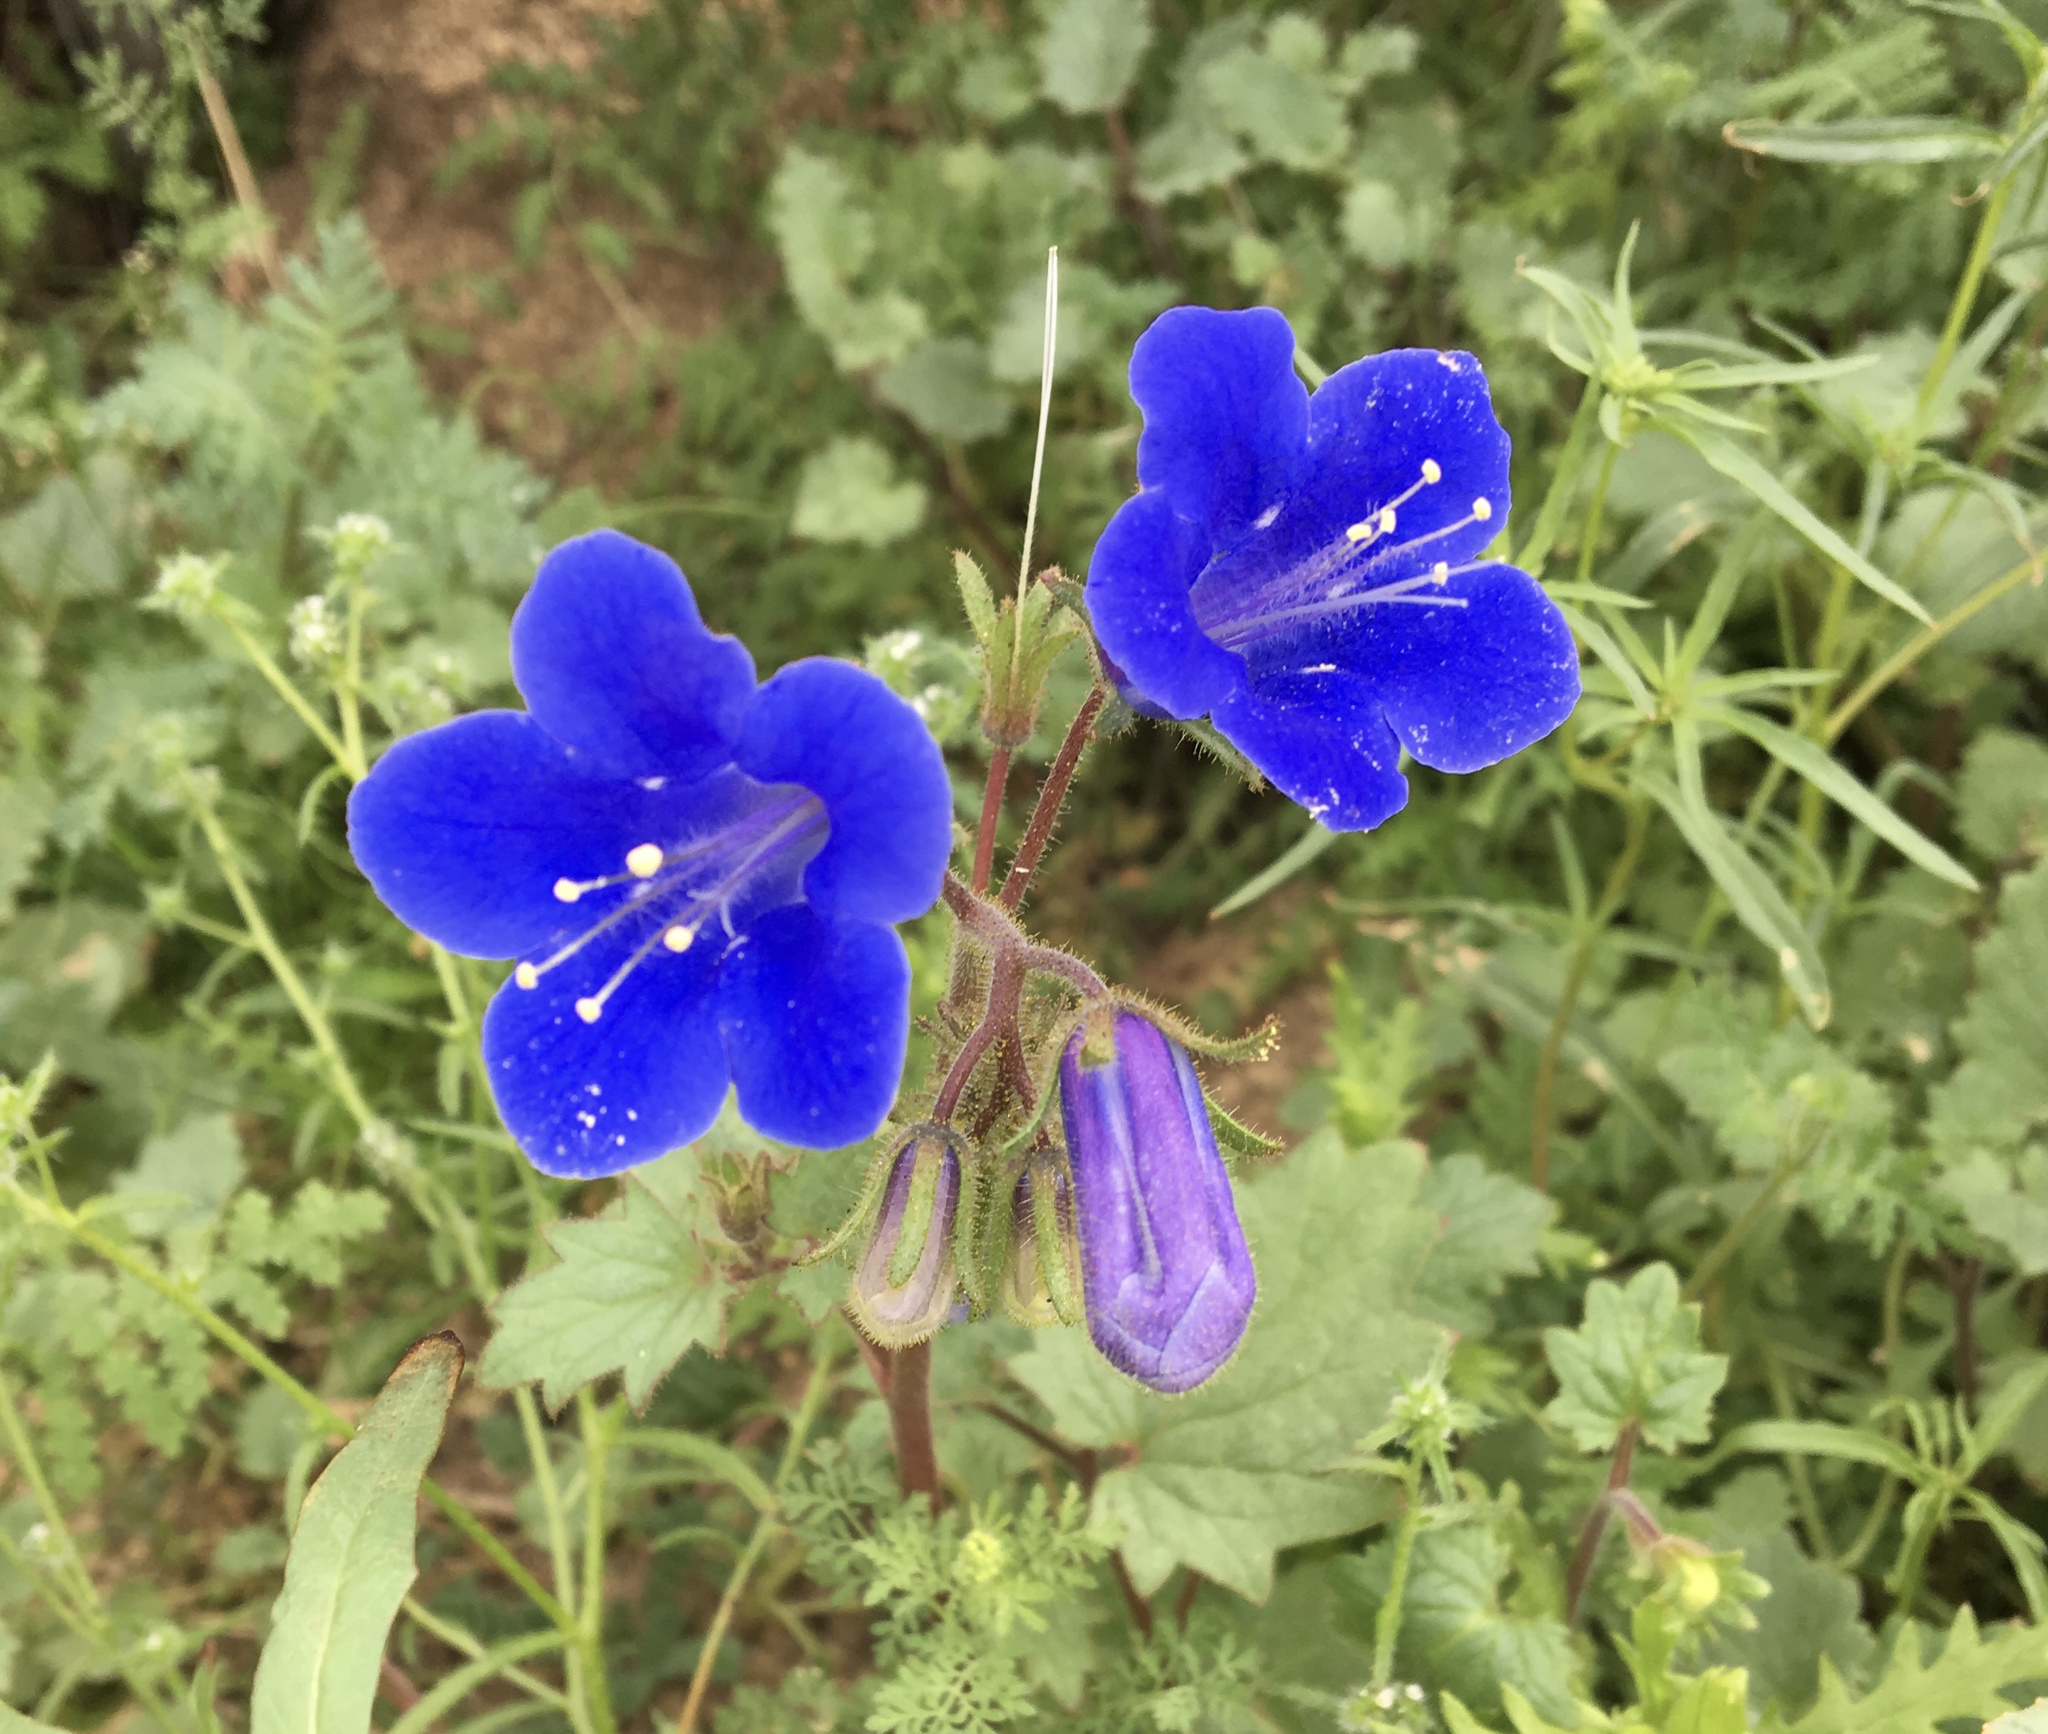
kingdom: Plantae
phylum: Tracheophyta
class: Magnoliopsida
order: Boraginales
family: Hydrophyllaceae
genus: Phacelia
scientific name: Phacelia campanularia
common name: California bluebell
